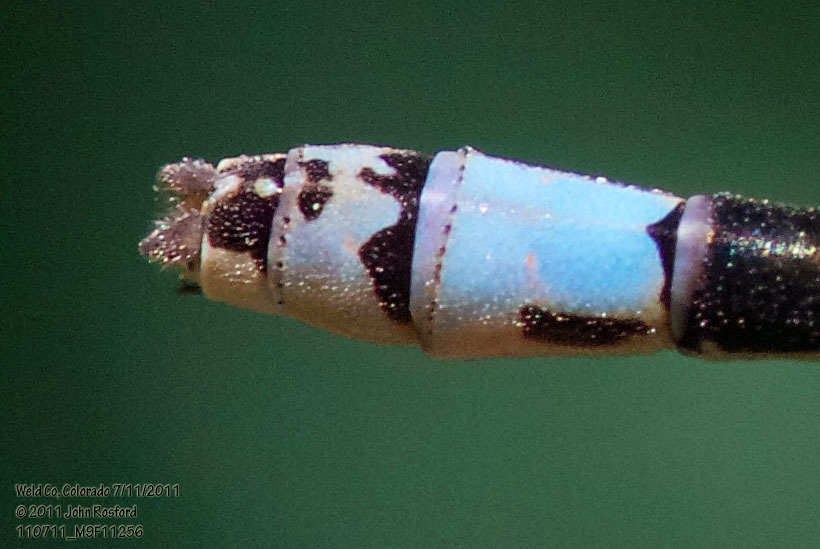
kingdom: Animalia
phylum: Arthropoda
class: Insecta
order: Odonata
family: Coenagrionidae
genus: Ischnura
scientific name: Ischnura damula
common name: Plains forktail
